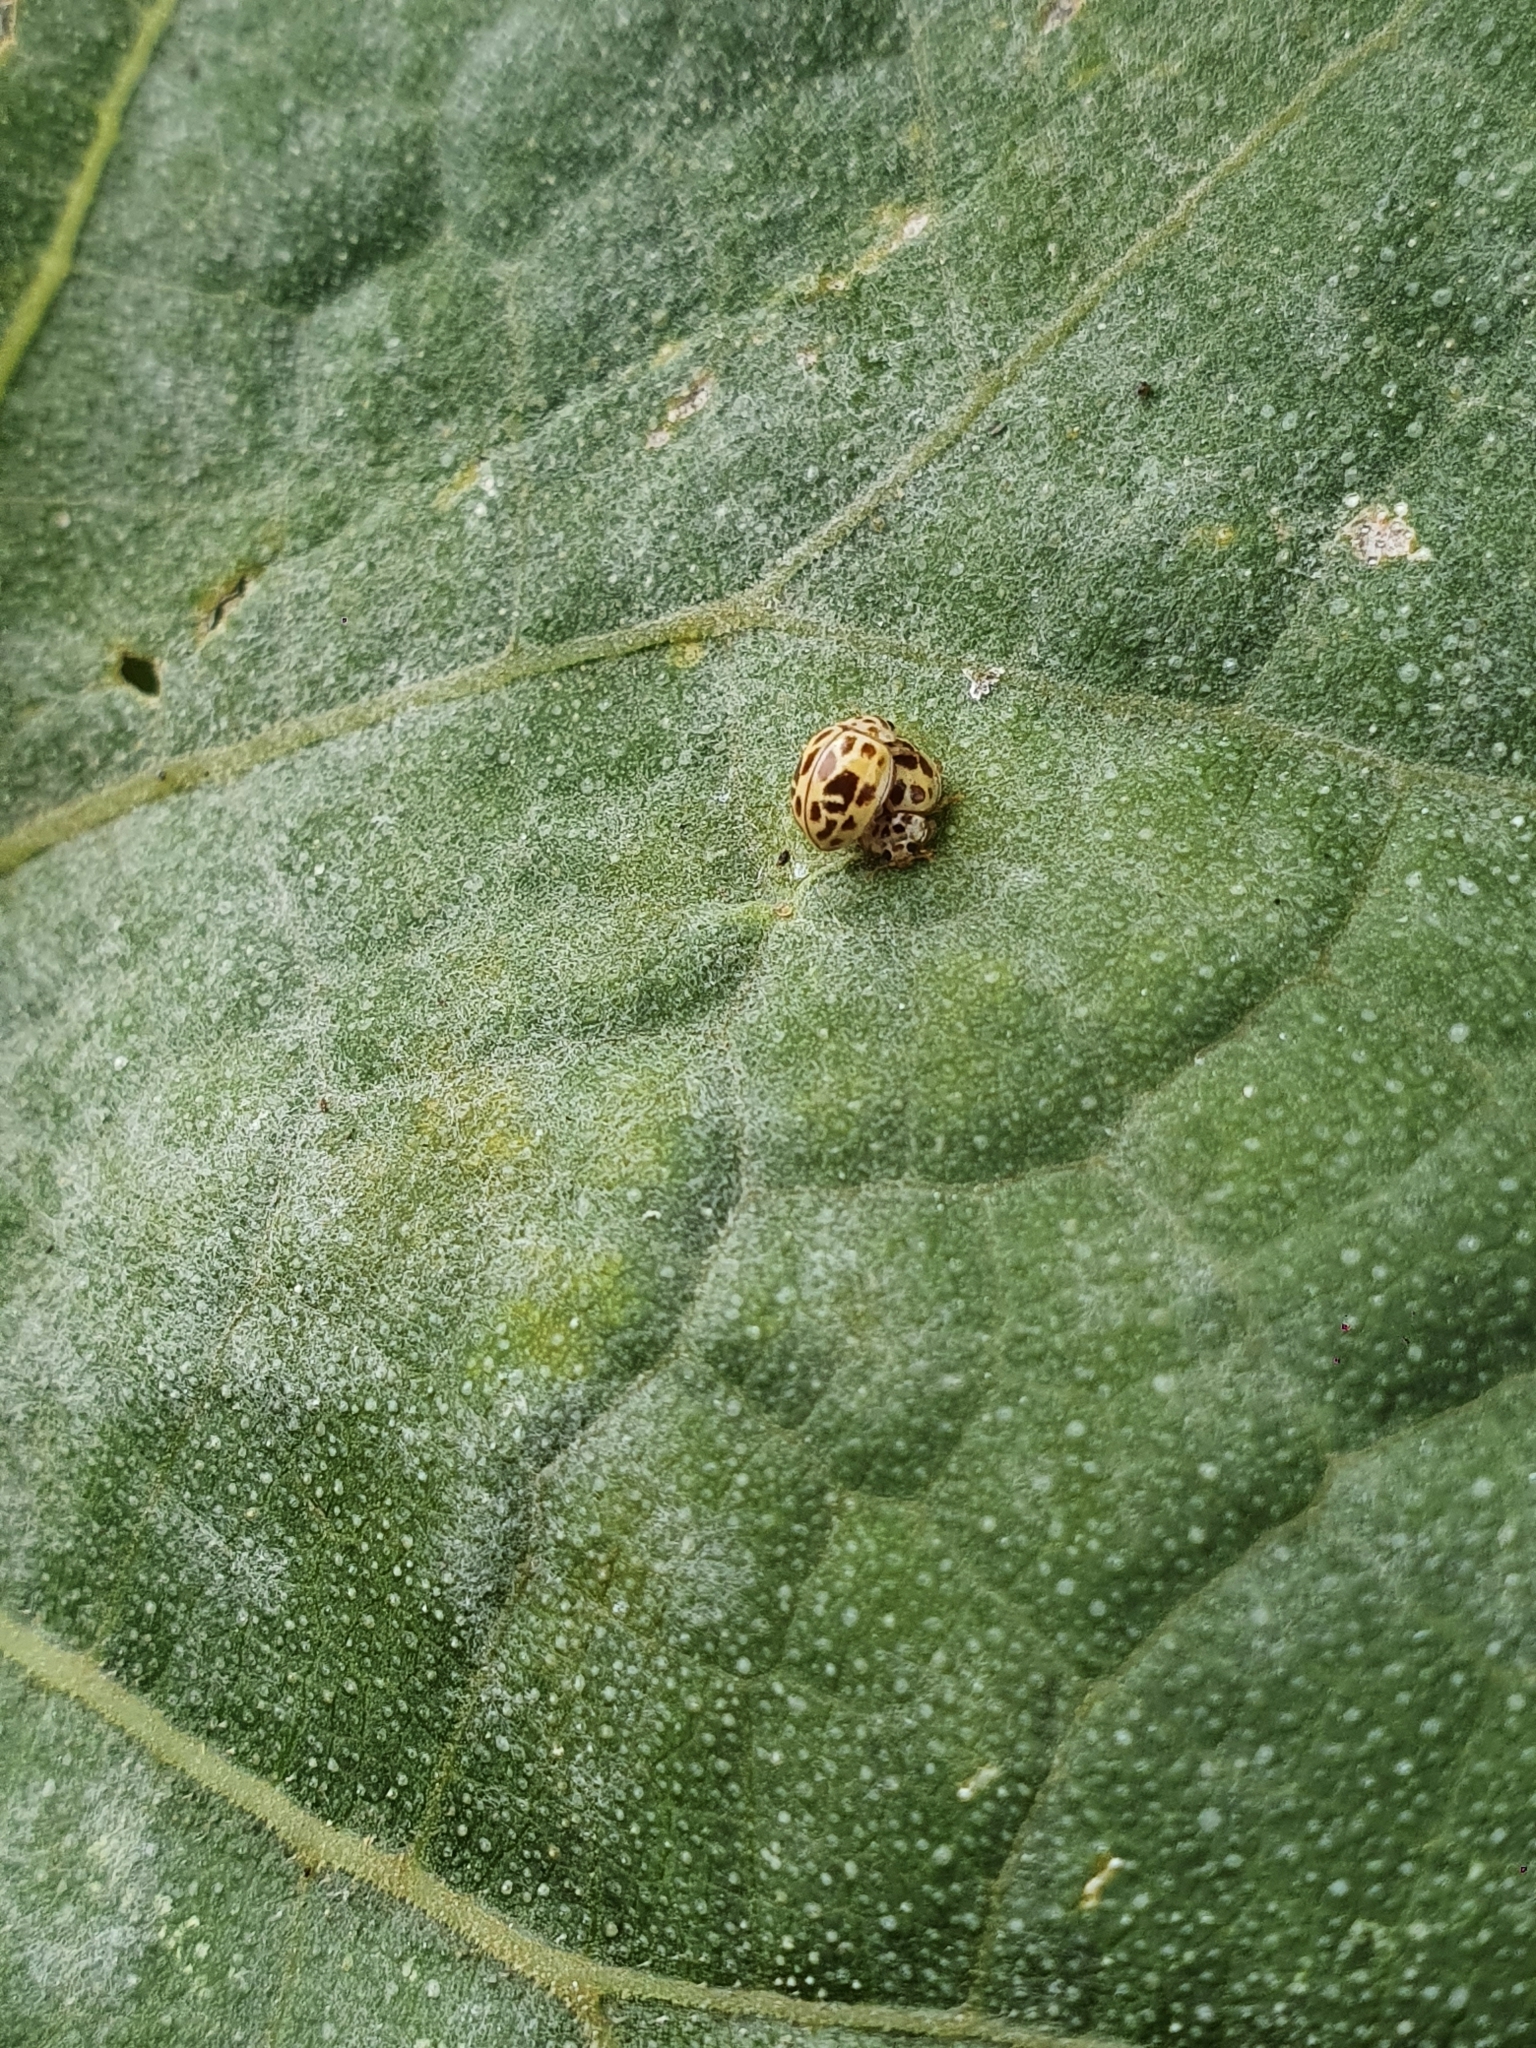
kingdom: Animalia
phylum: Arthropoda
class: Insecta
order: Coleoptera
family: Coccinellidae
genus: Psyllobora
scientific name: Psyllobora
